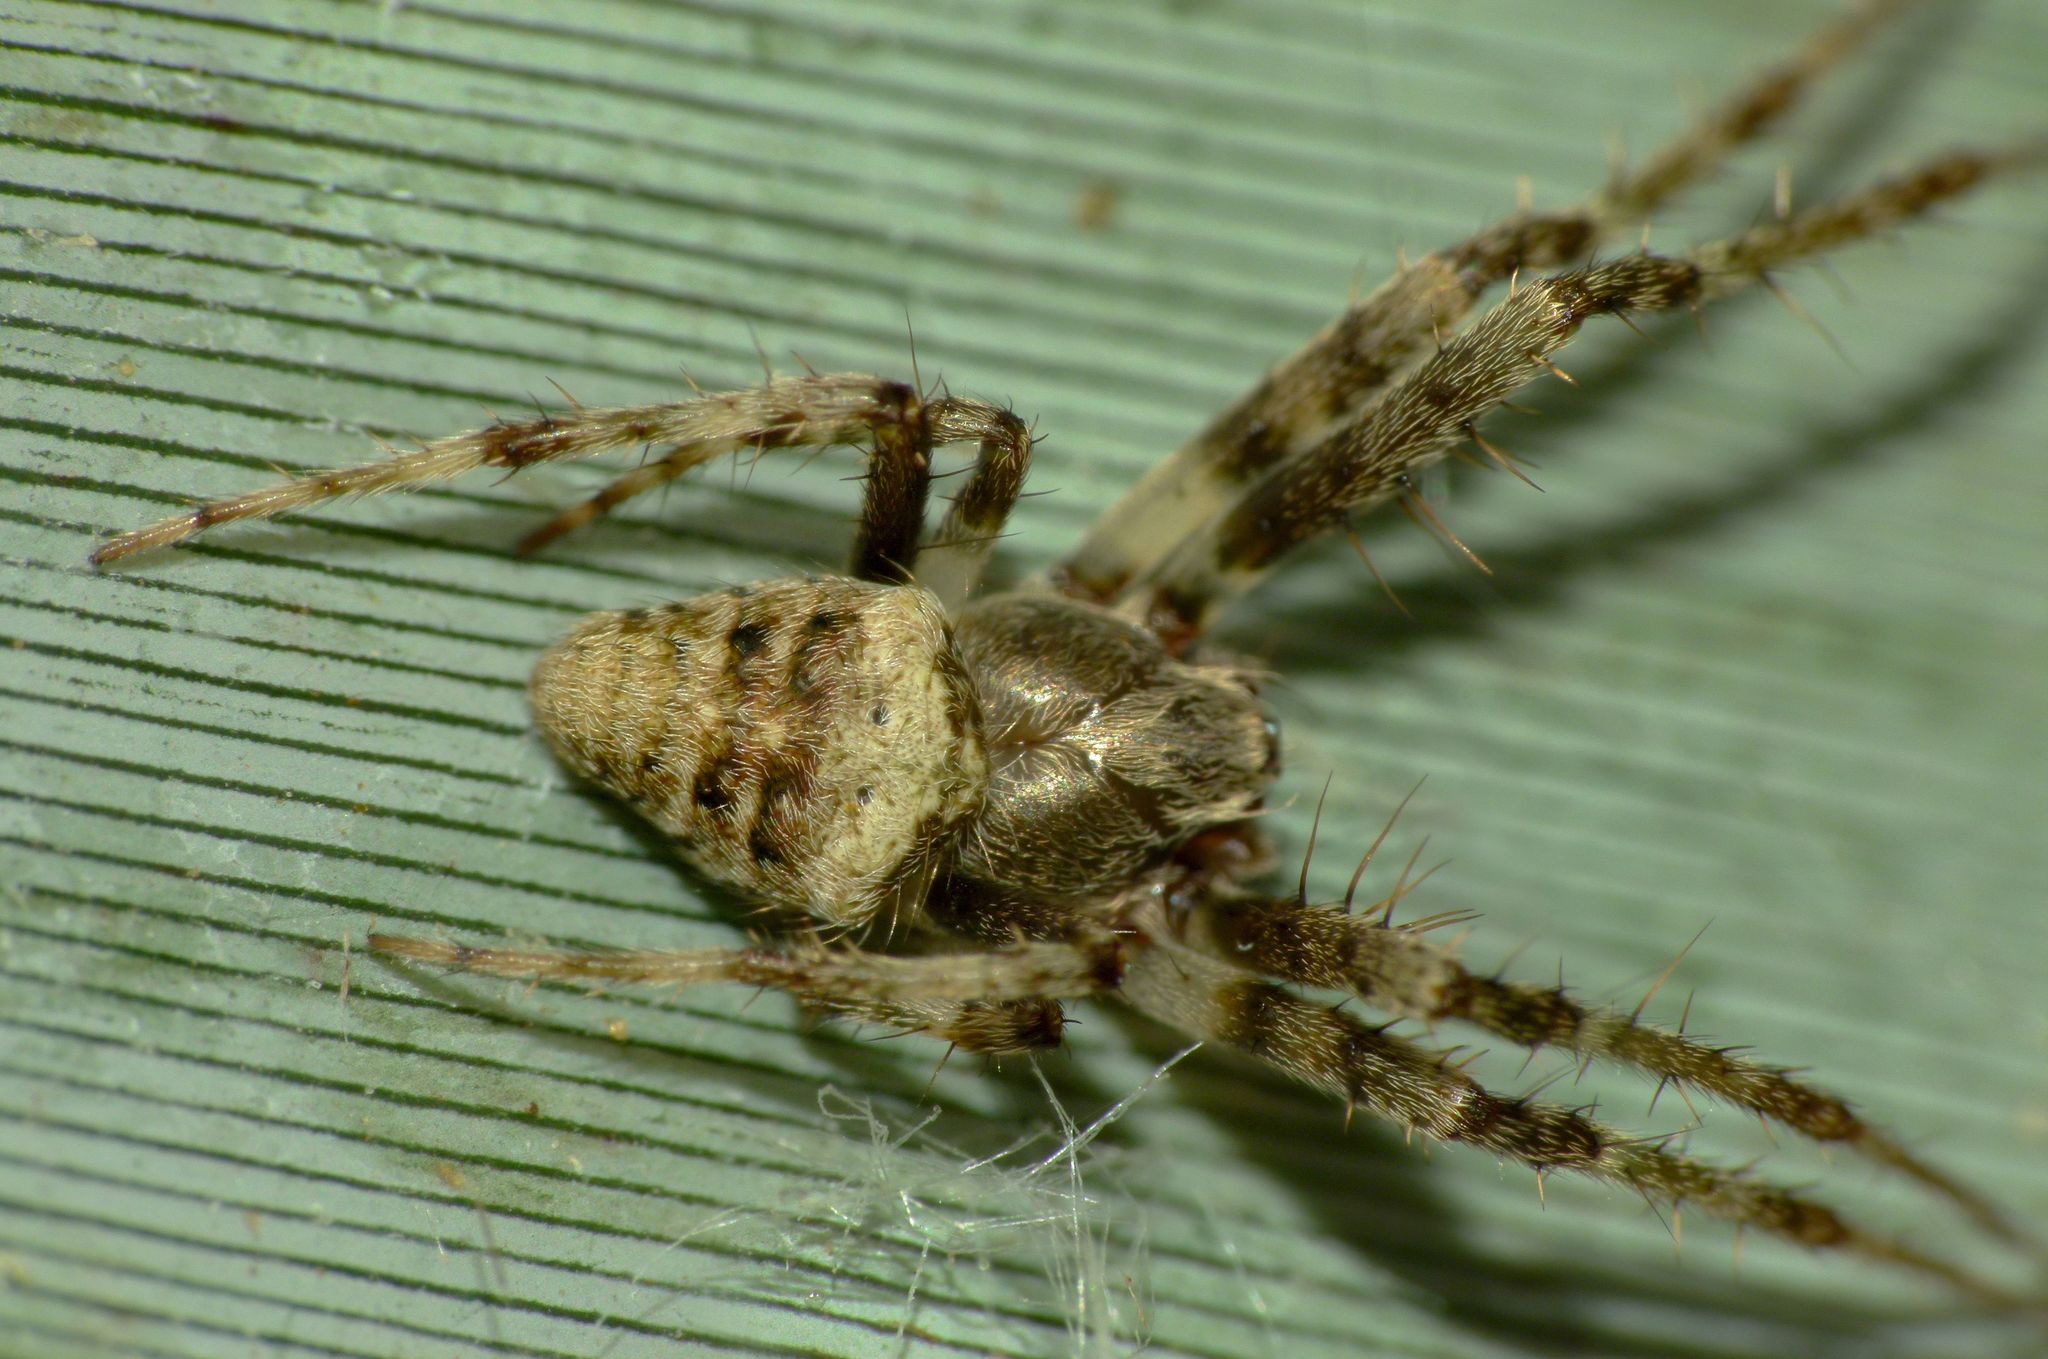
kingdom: Animalia
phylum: Arthropoda
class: Arachnida
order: Araneae
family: Araneidae
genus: Zealaranea
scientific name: Zealaranea trinotata
